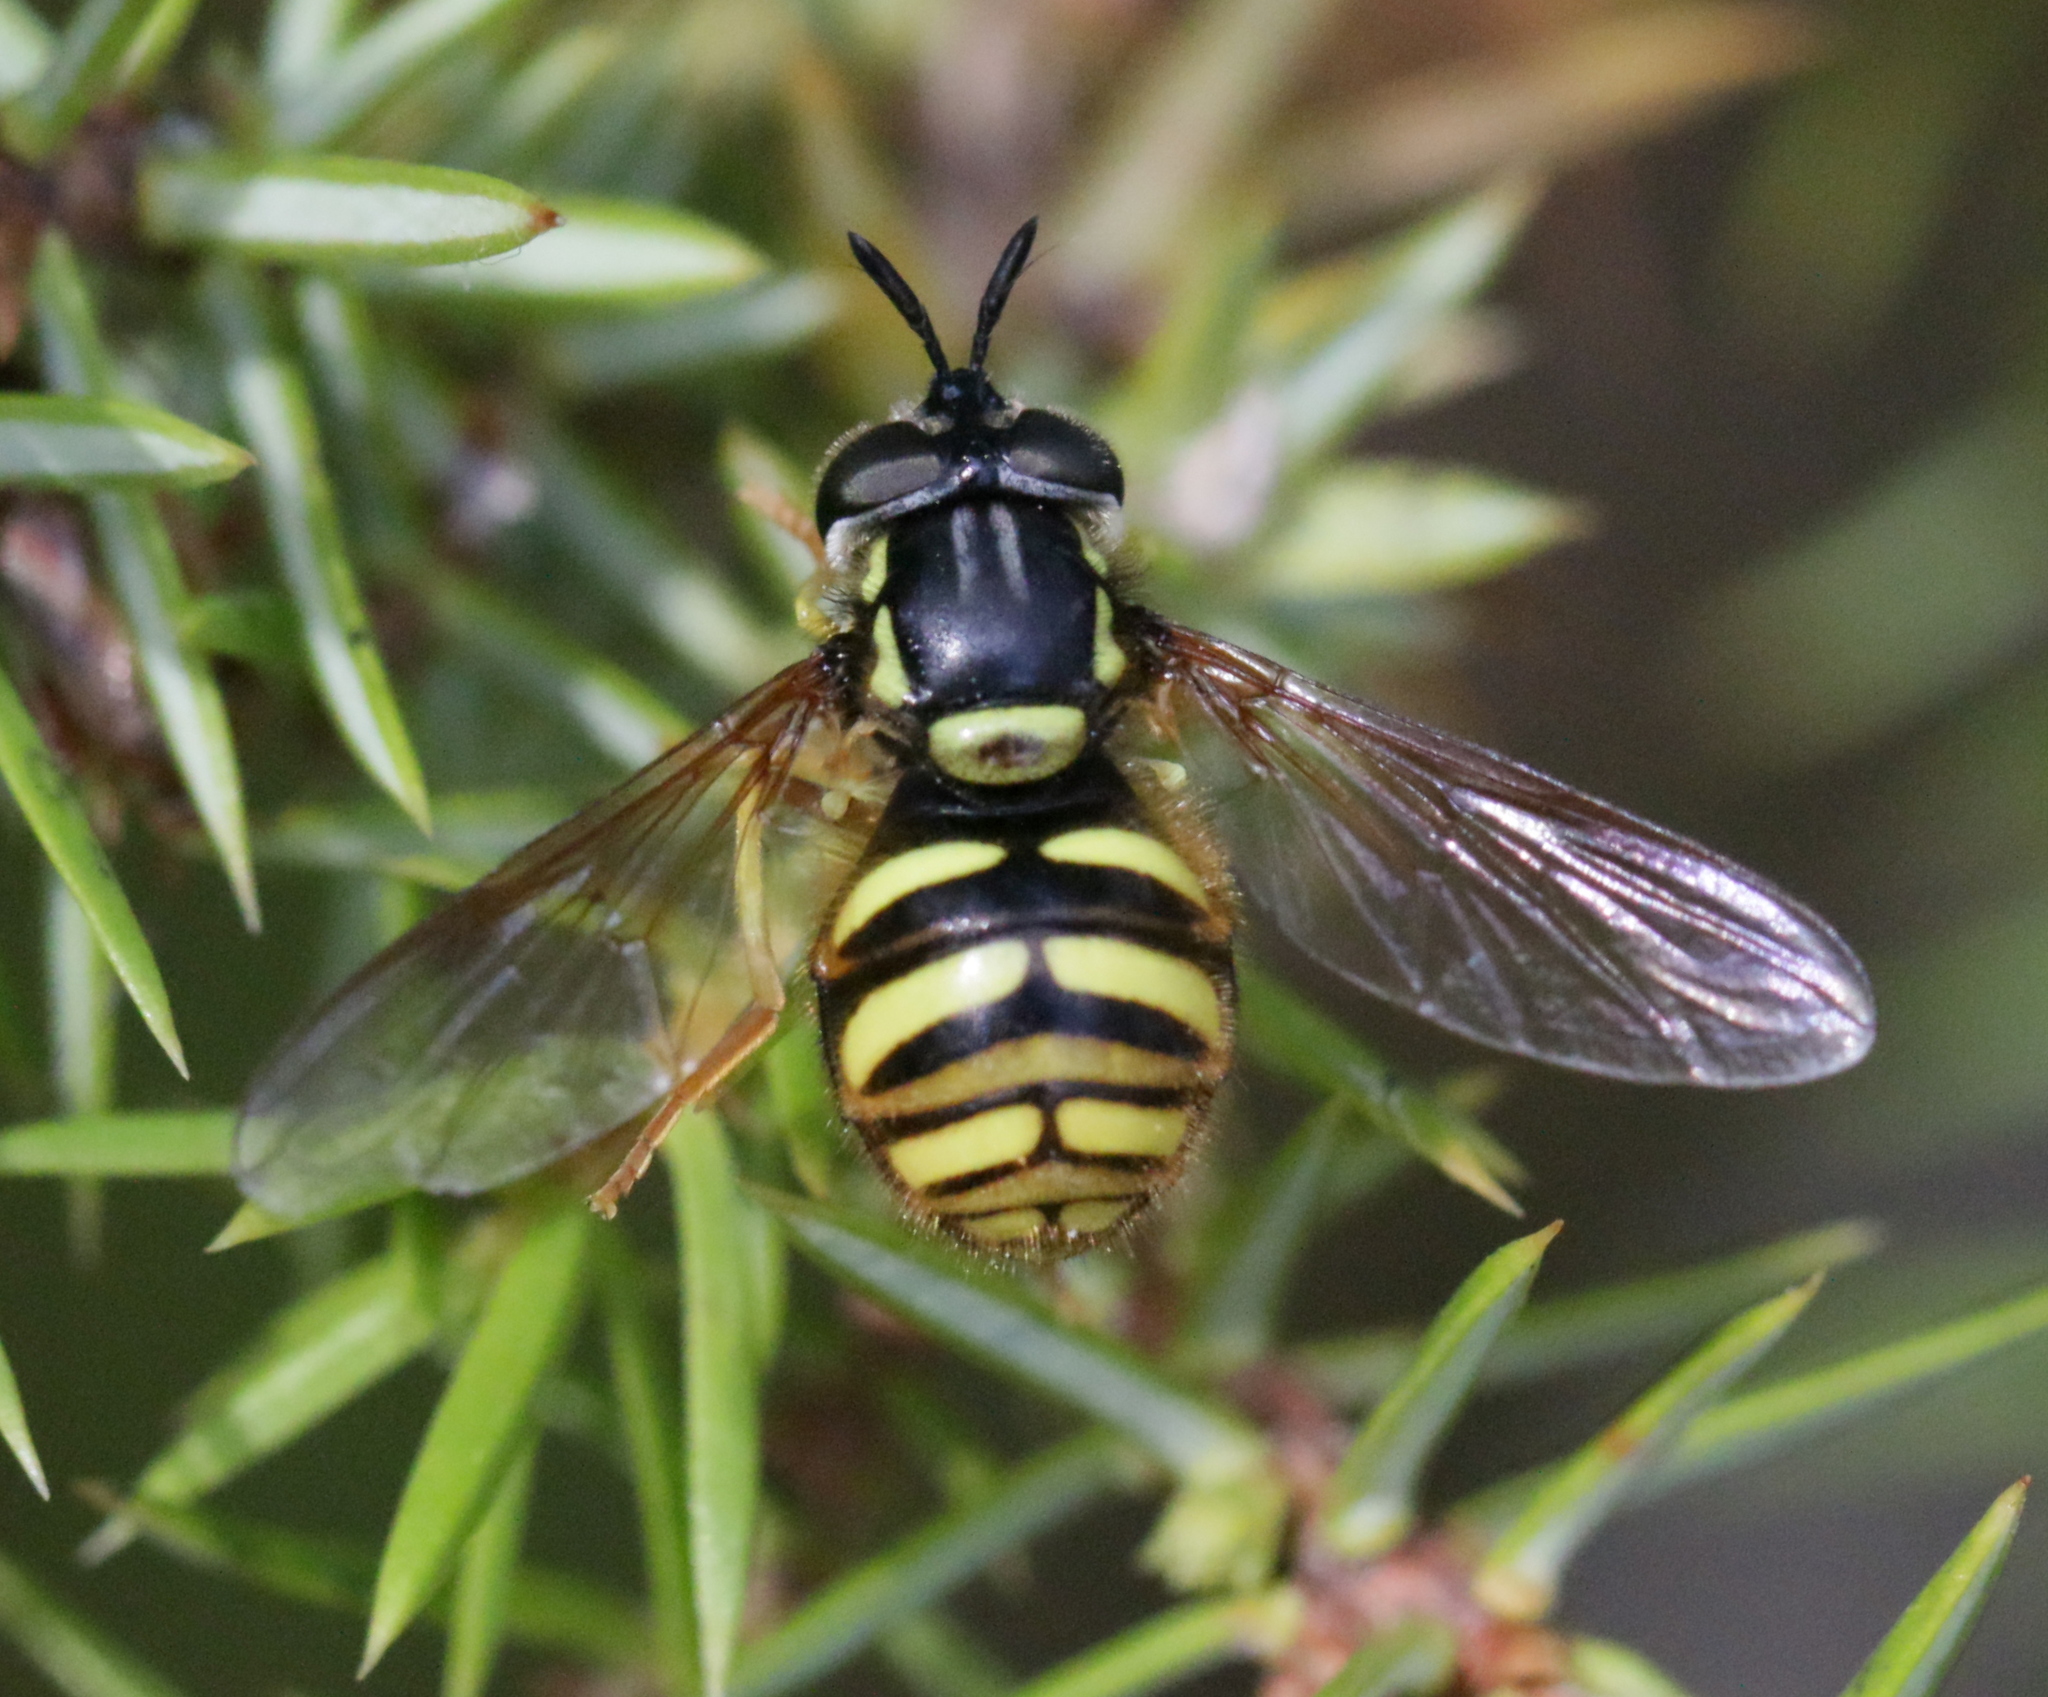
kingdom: Animalia
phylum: Arthropoda
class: Insecta
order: Diptera
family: Syrphidae
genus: Chrysotoxum
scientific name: Chrysotoxum arcuatum
